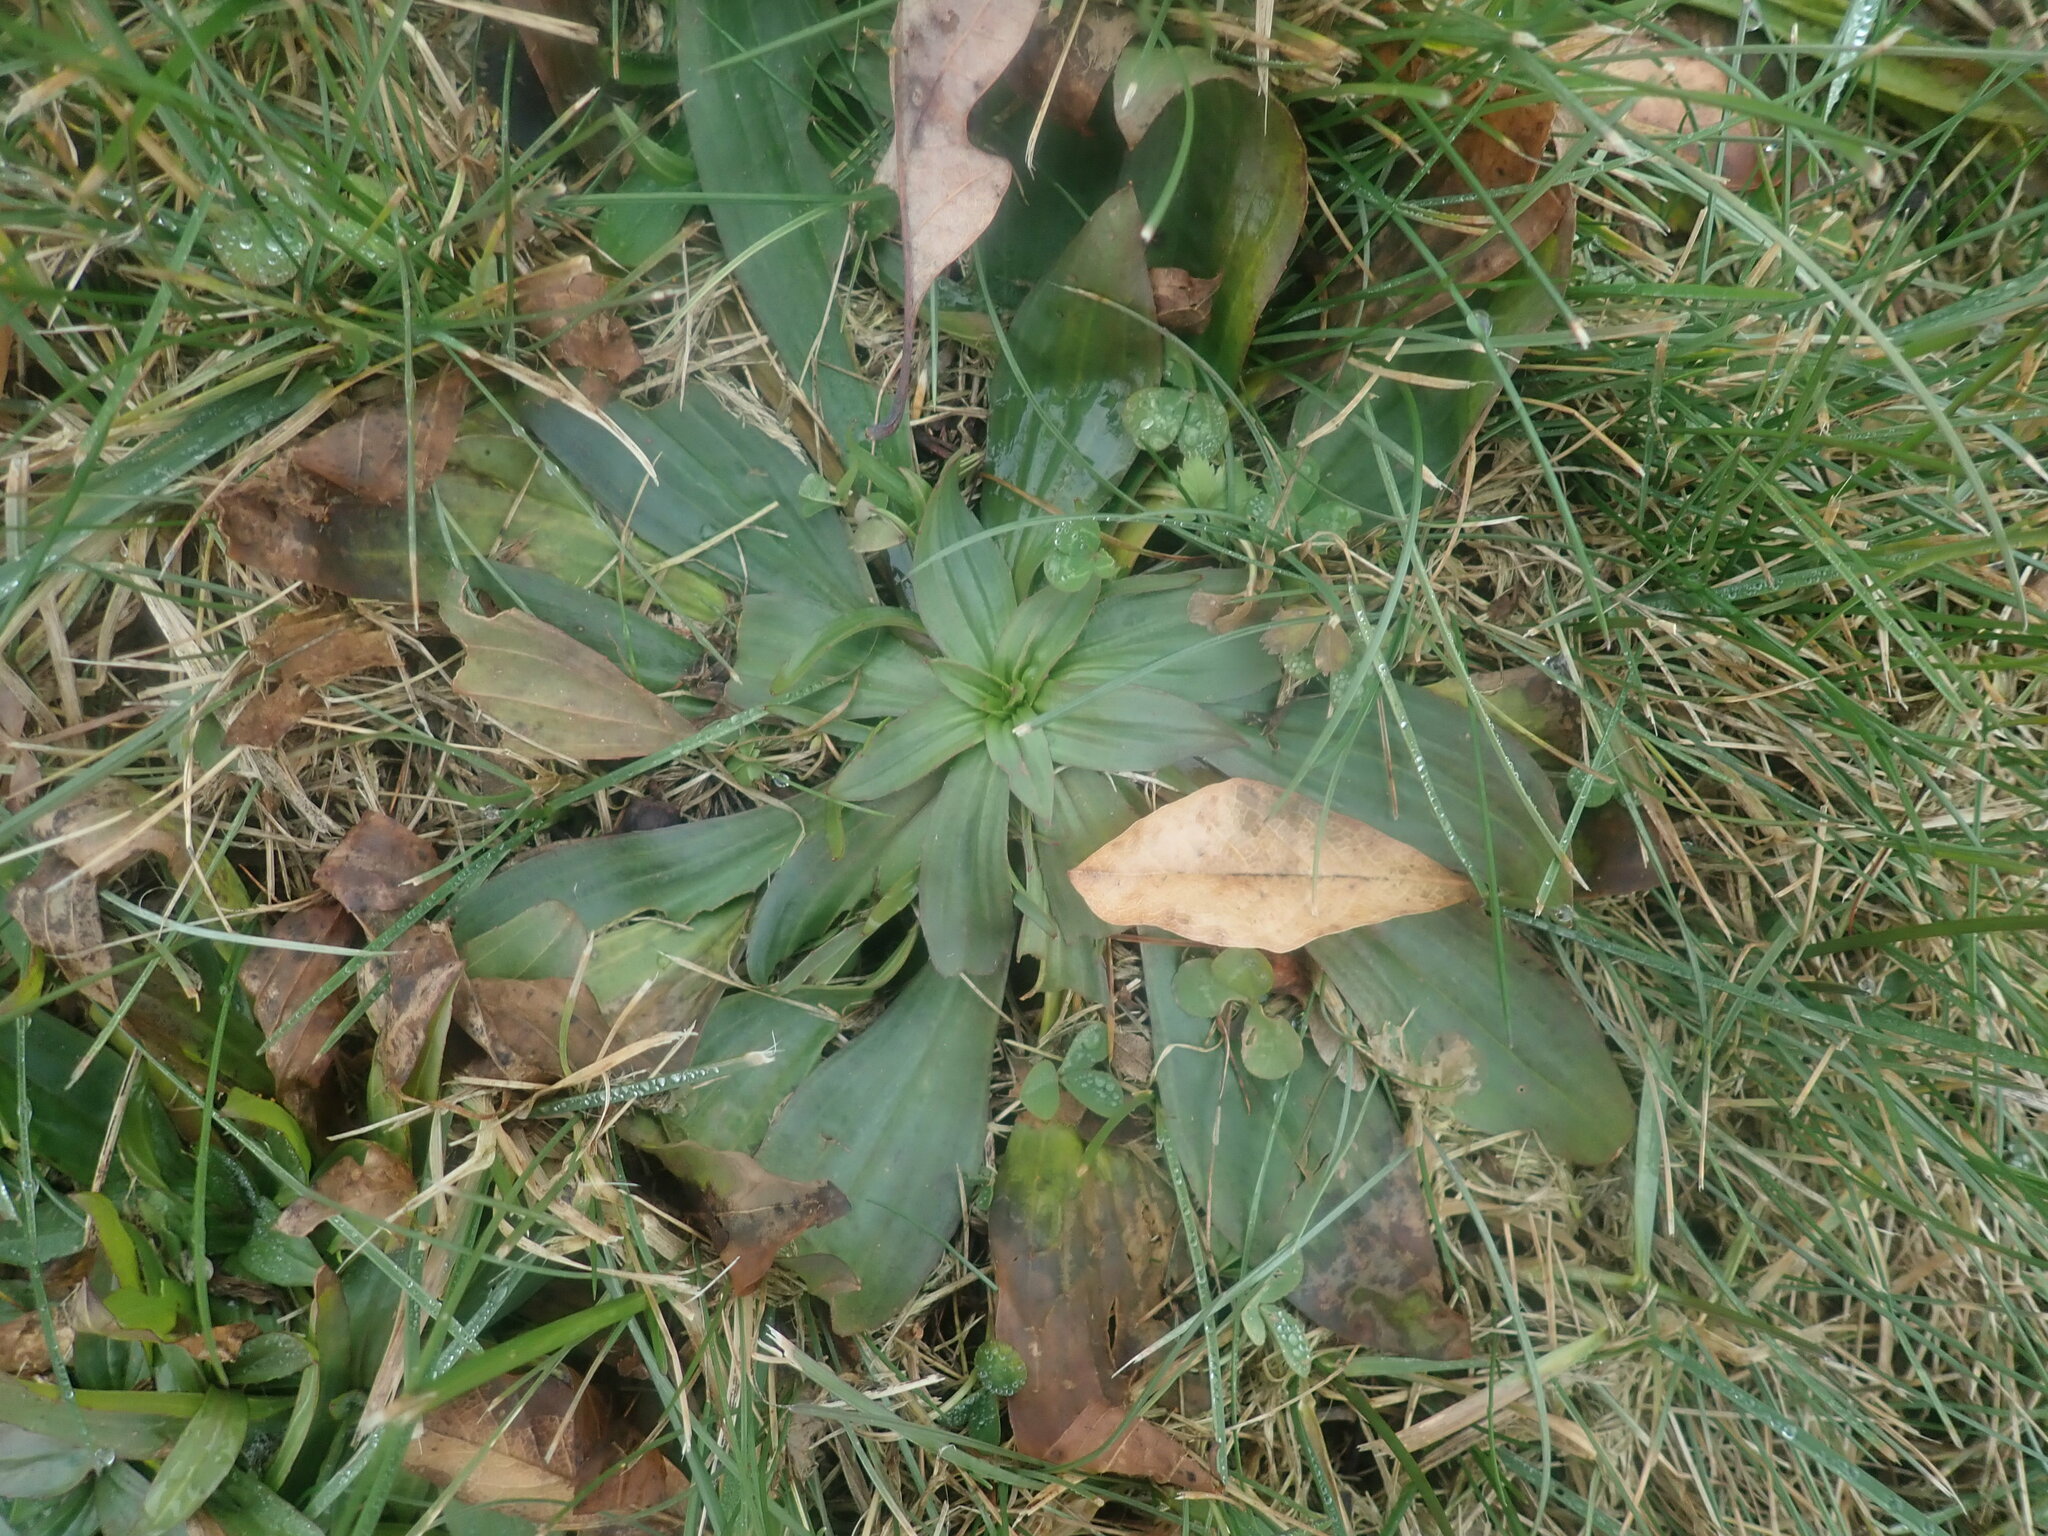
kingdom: Plantae
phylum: Tracheophyta
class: Magnoliopsida
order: Lamiales
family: Plantaginaceae
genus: Plantago
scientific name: Plantago lanceolata
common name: Ribwort plantain
